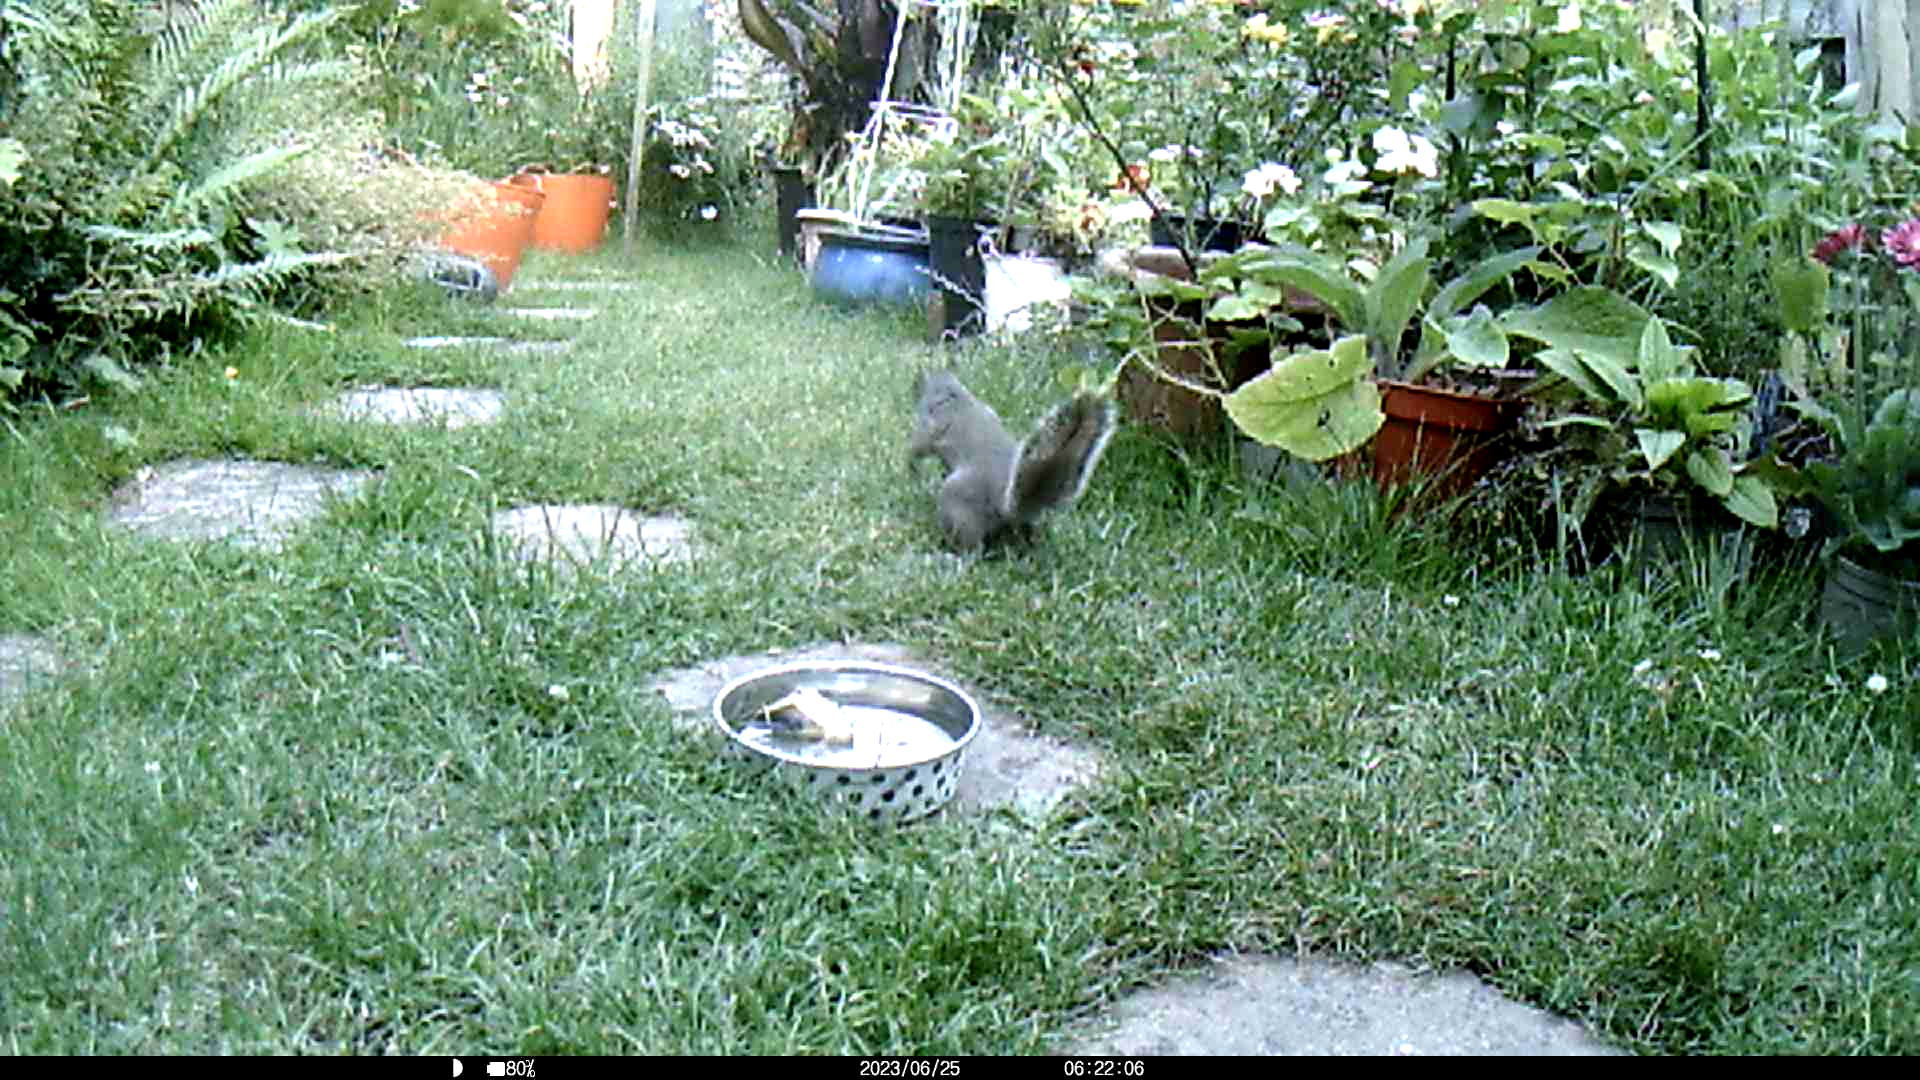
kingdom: Animalia
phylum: Chordata
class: Mammalia
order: Rodentia
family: Sciuridae
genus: Sciurus
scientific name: Sciurus carolinensis
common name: Eastern gray squirrel
